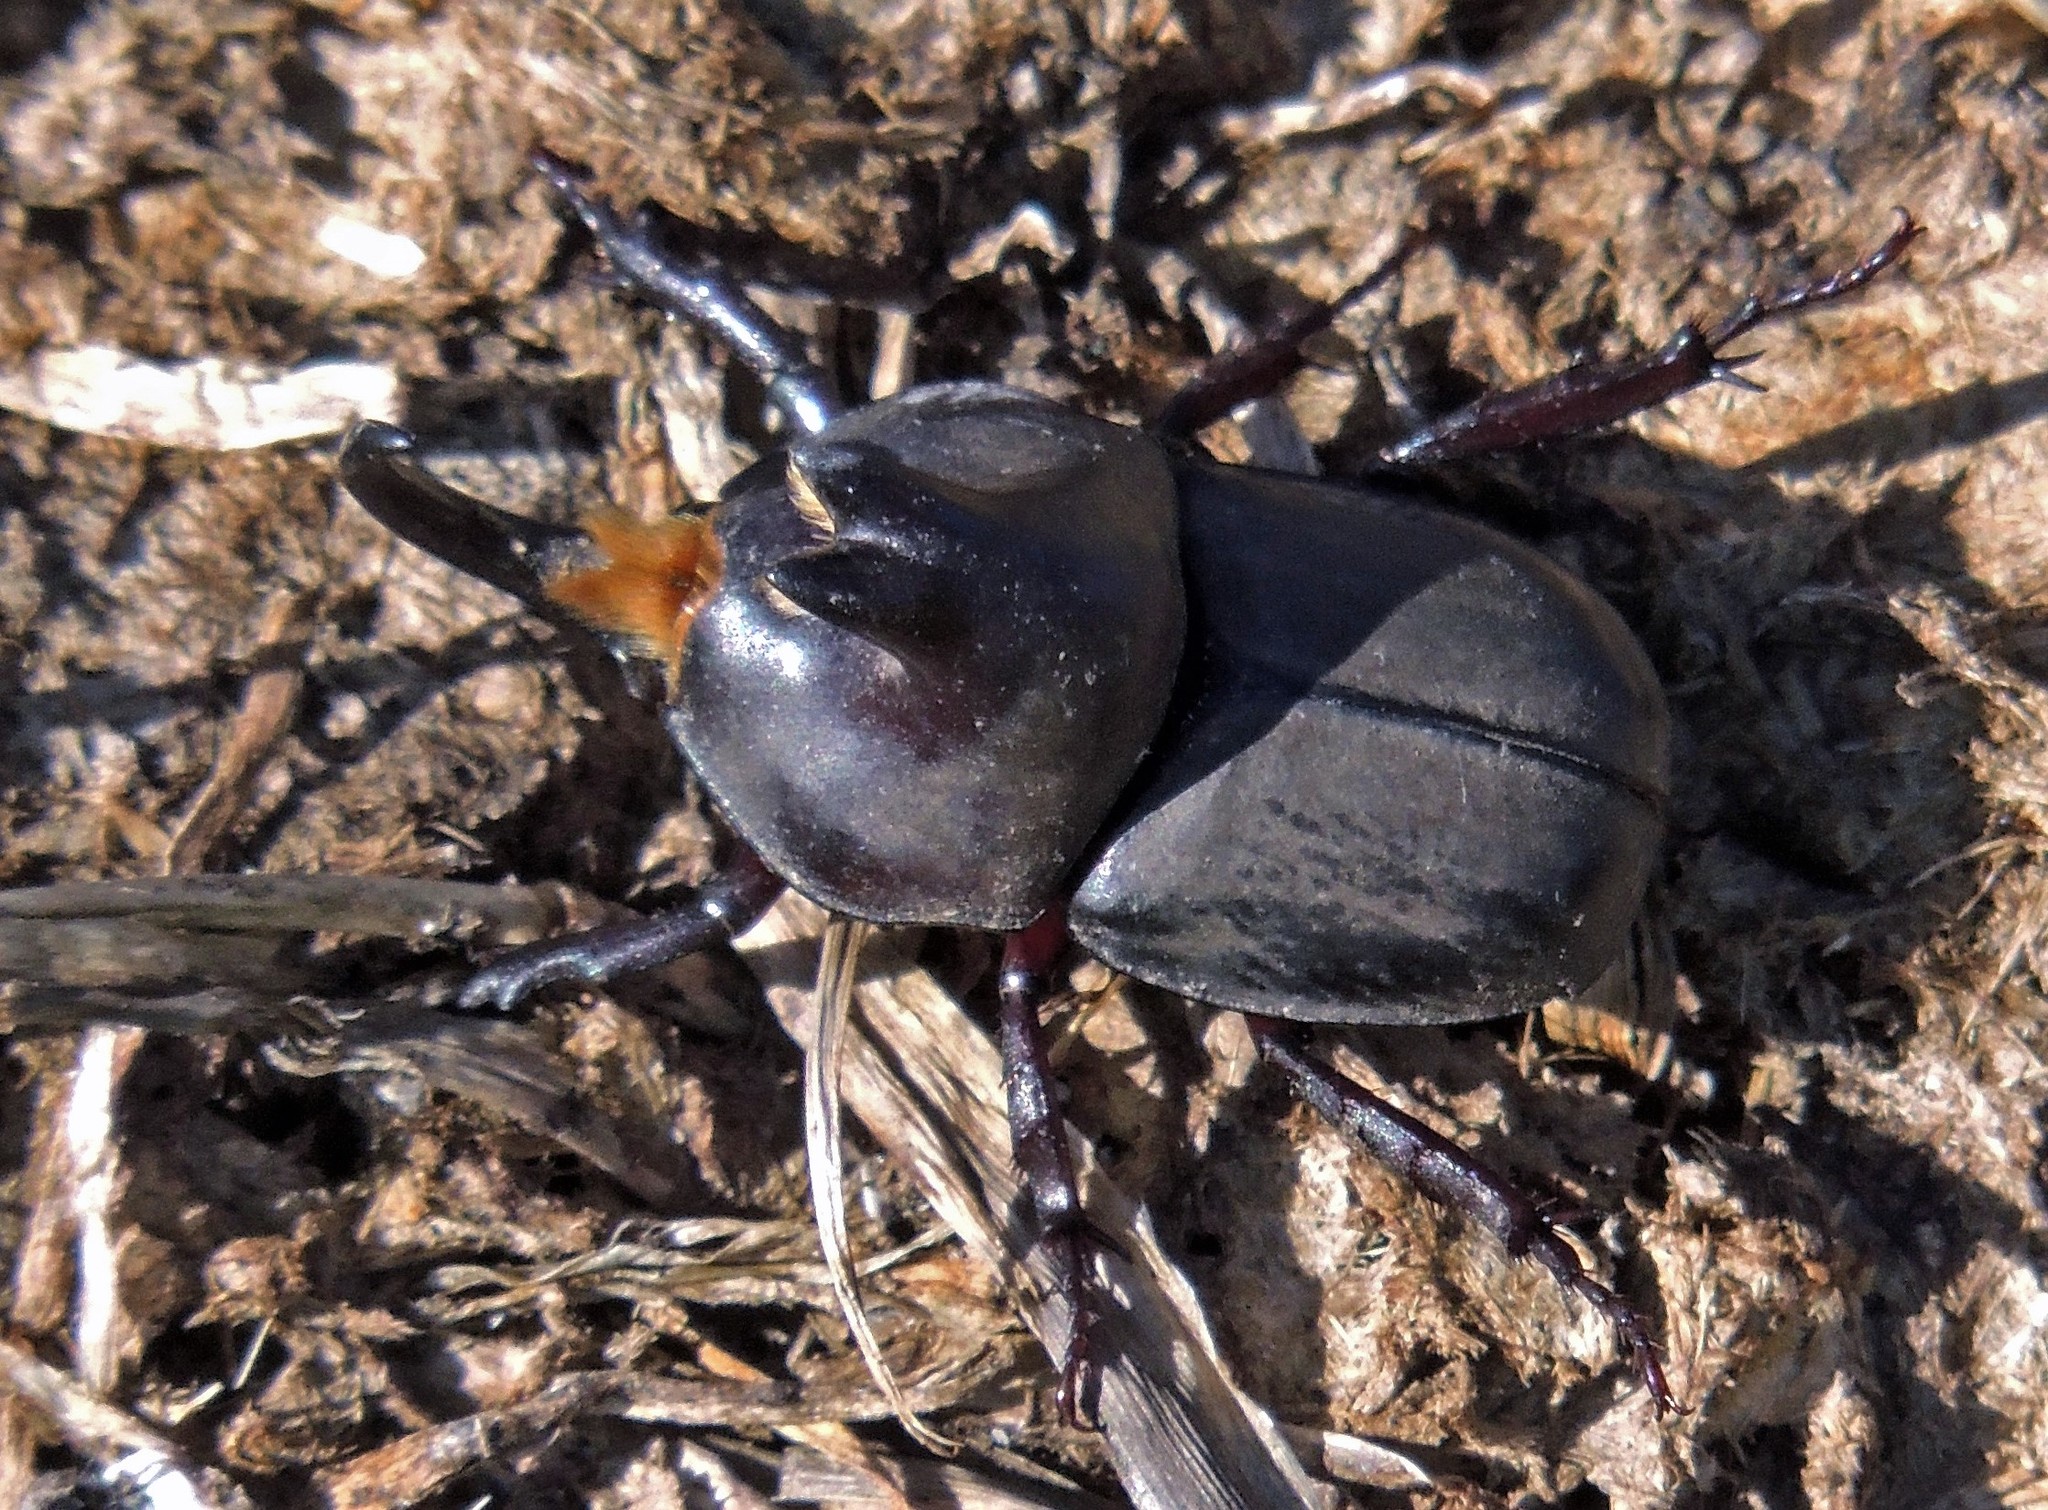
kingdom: Animalia
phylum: Arthropoda
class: Insecta
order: Coleoptera
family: Scarabaeidae
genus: Diloboderus
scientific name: Diloboderus abderus
